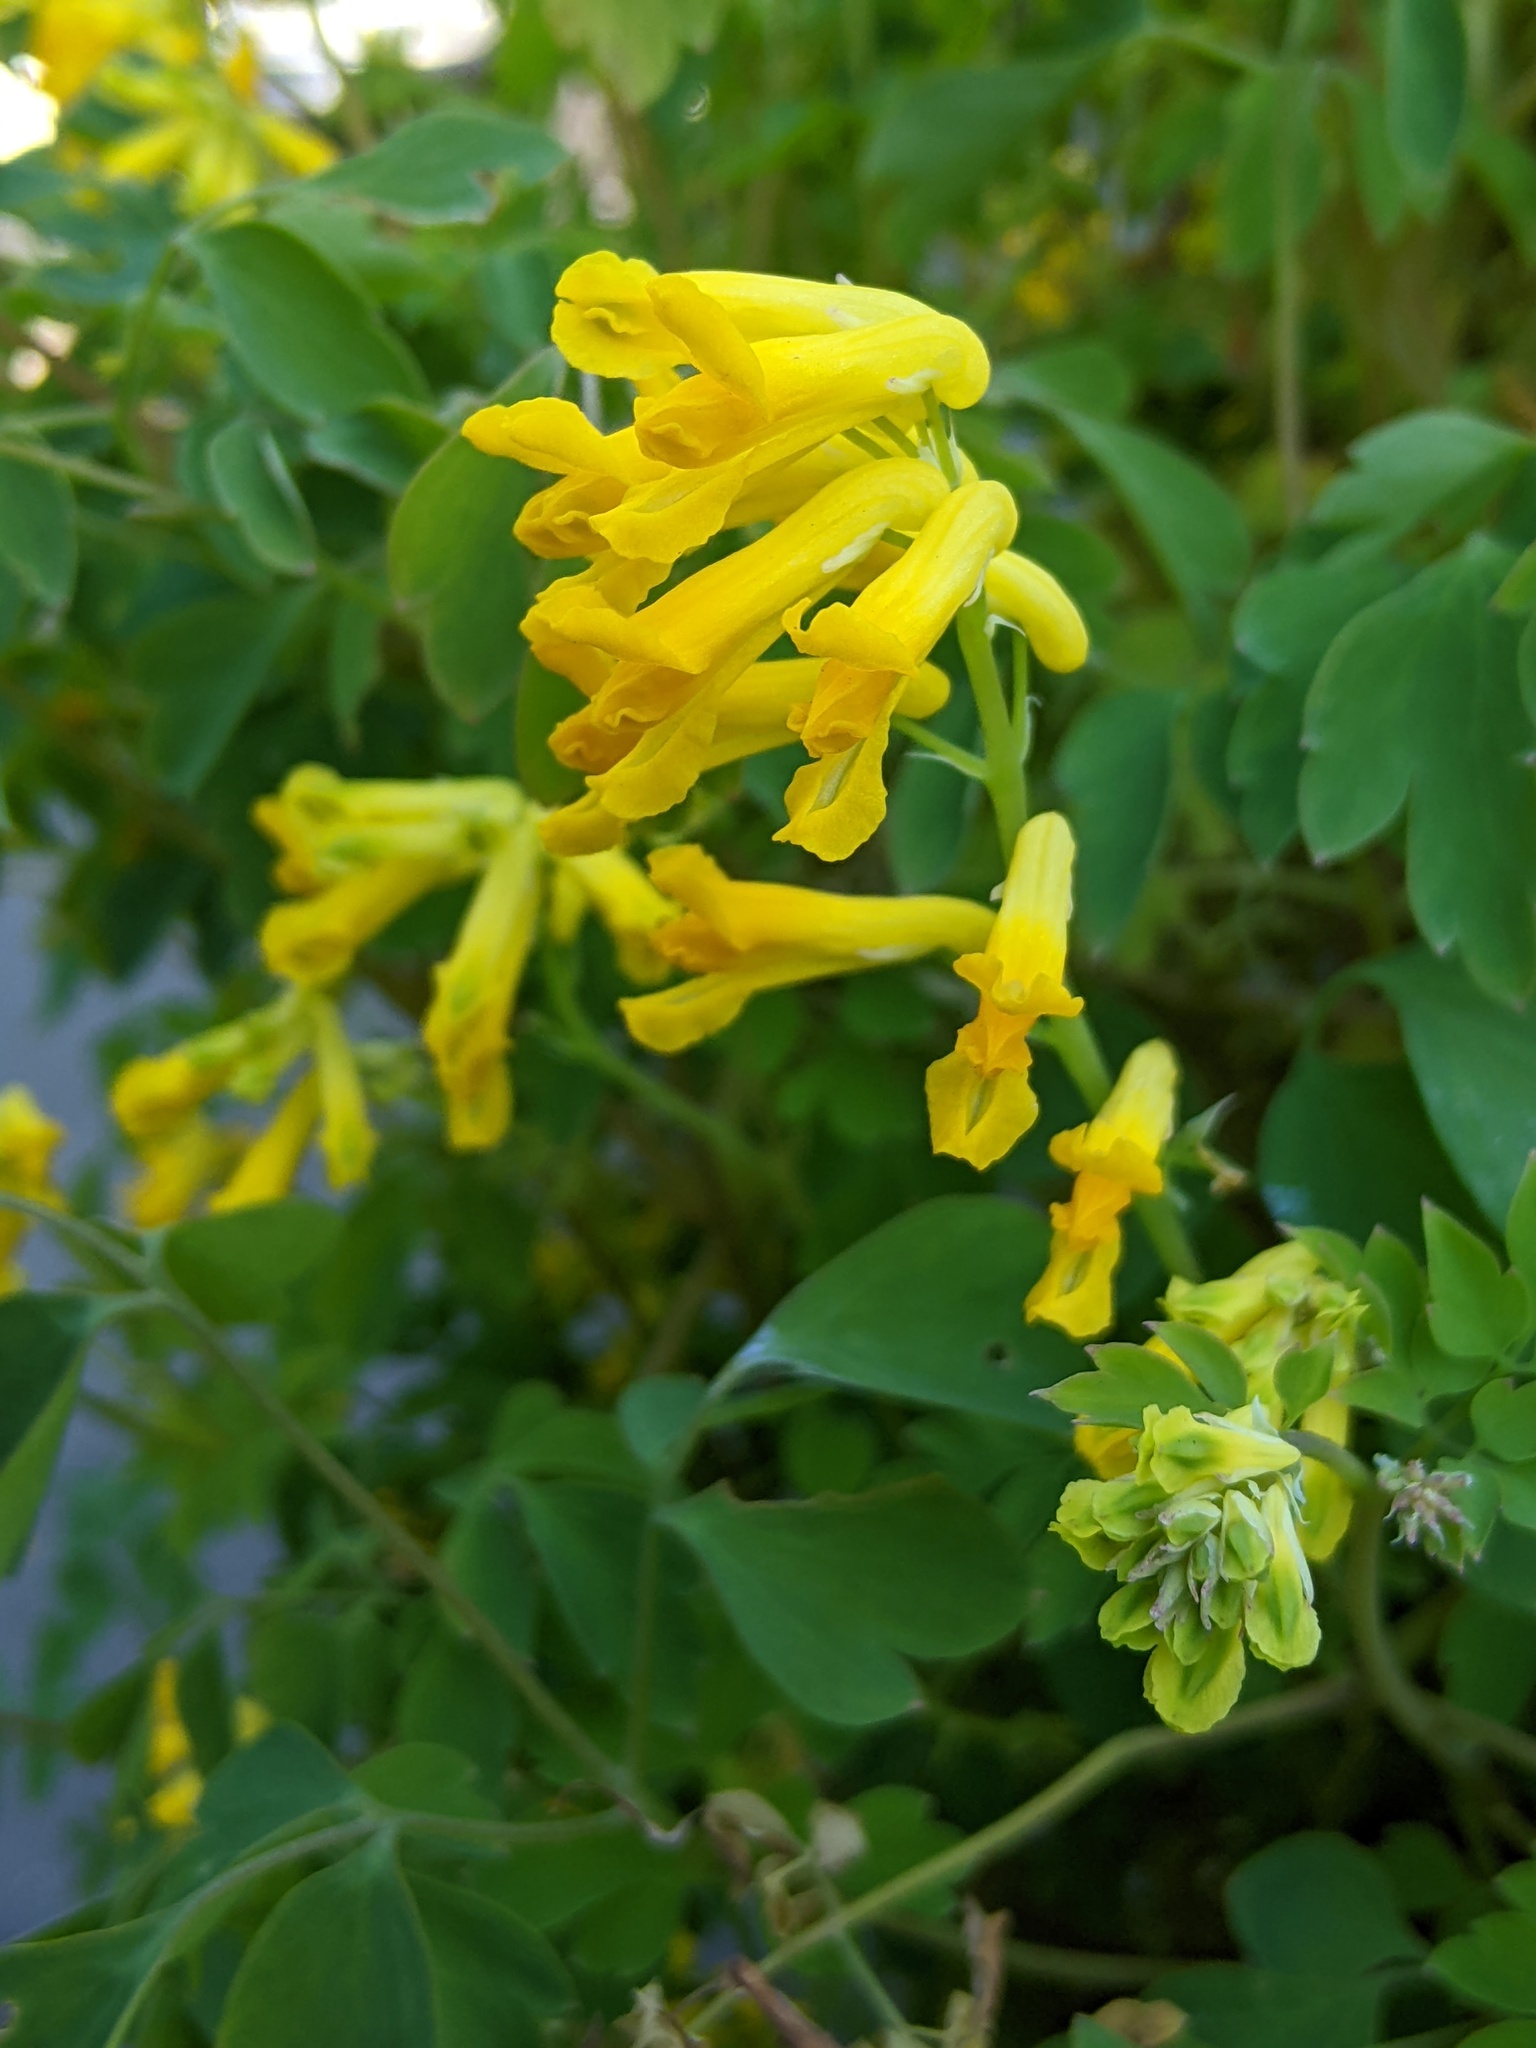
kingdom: Plantae
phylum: Tracheophyta
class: Magnoliopsida
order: Ranunculales
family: Papaveraceae
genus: Pseudofumaria
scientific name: Pseudofumaria lutea
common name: Yellow corydalis
